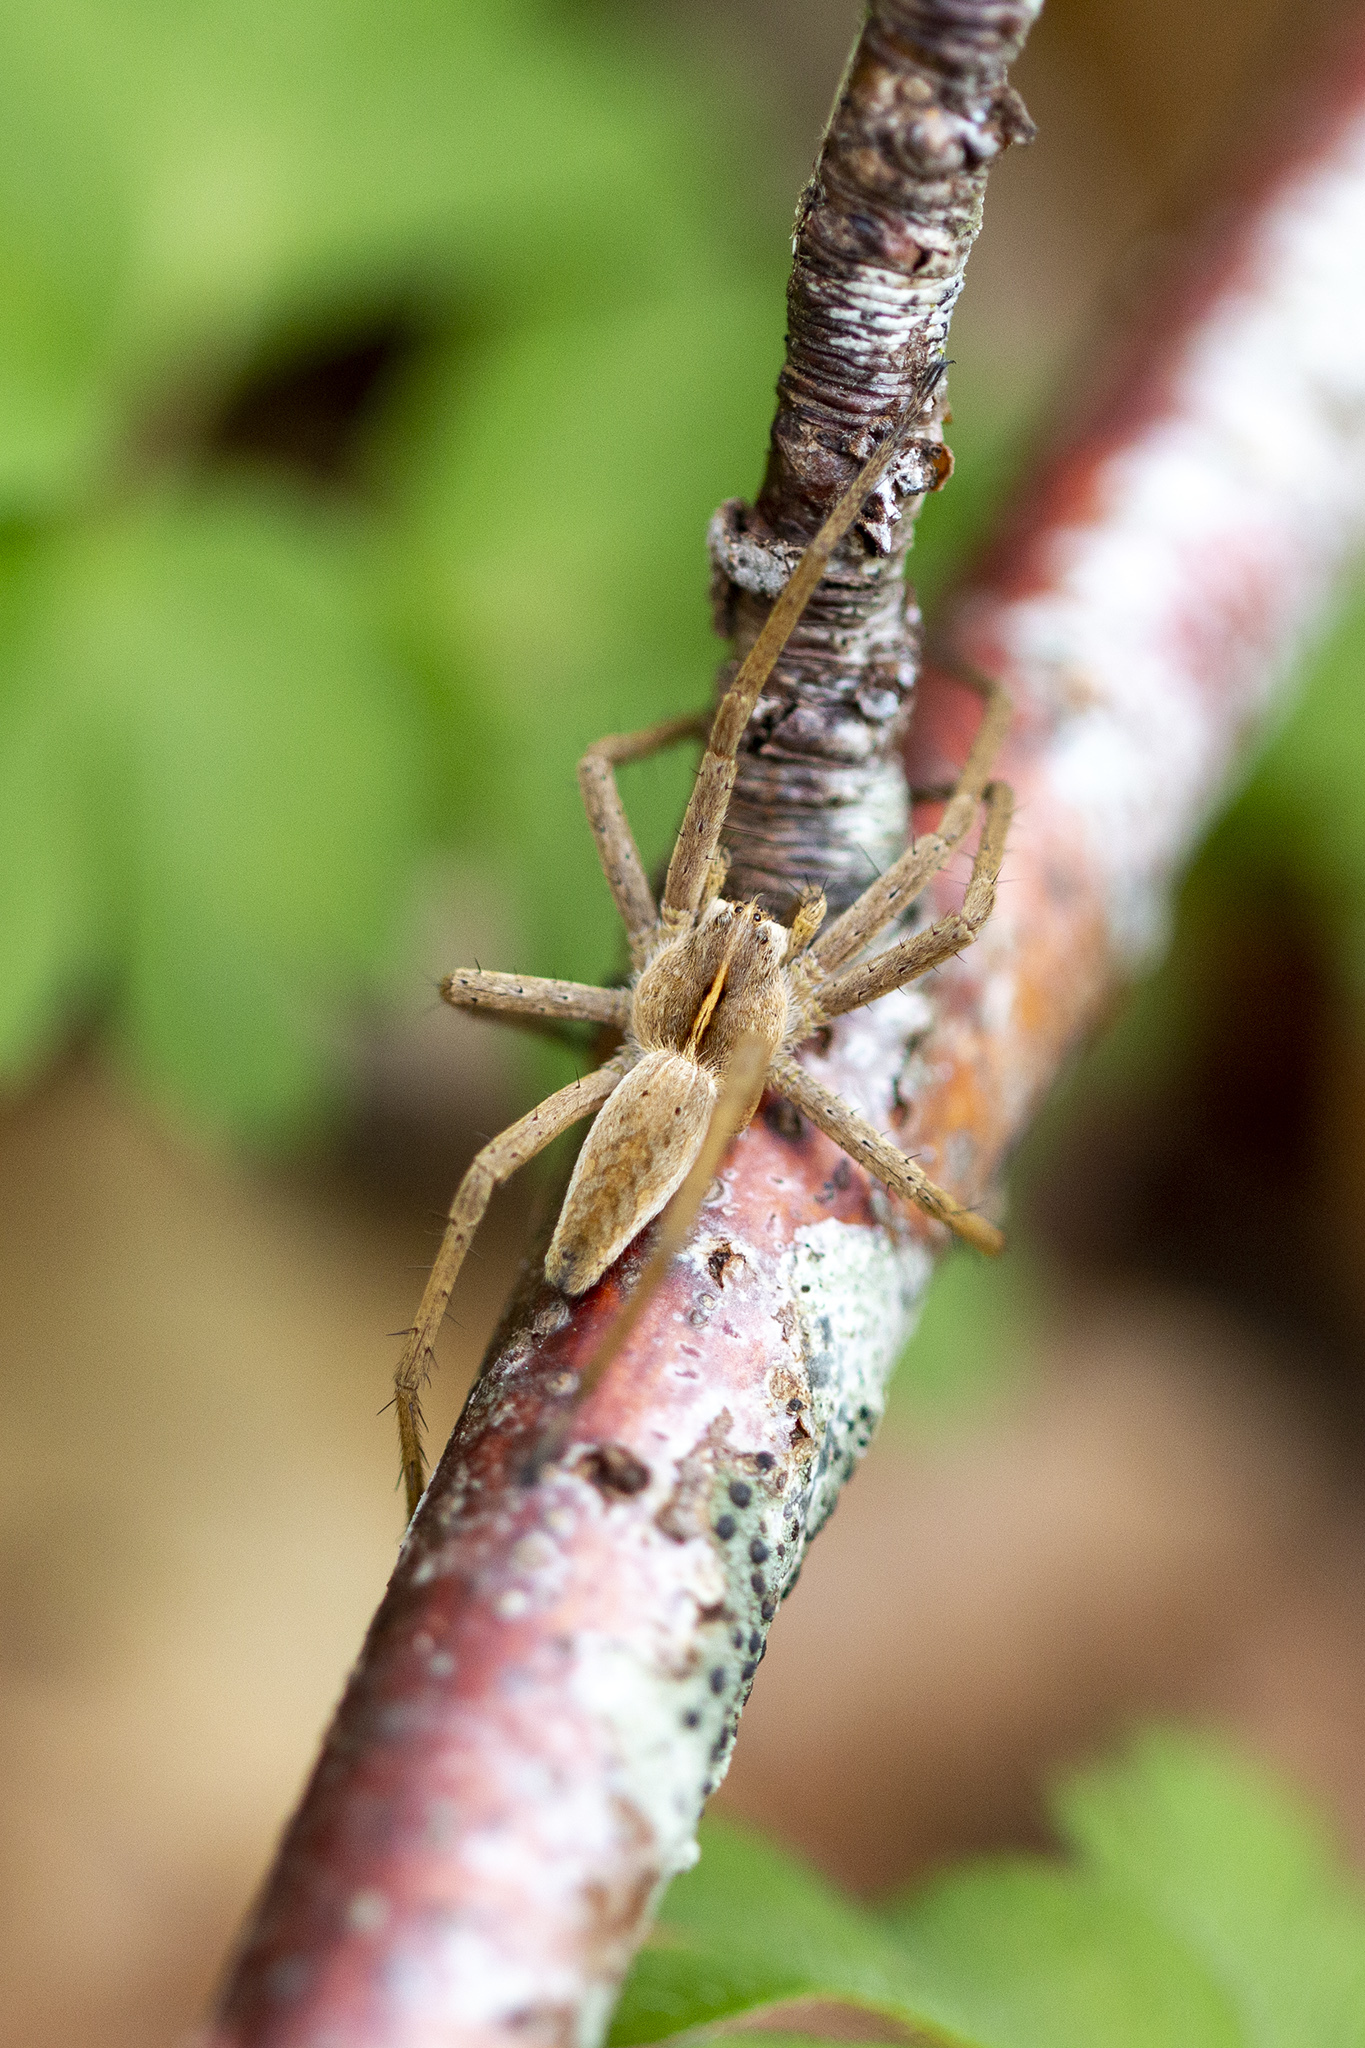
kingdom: Animalia
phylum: Arthropoda
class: Arachnida
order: Araneae
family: Pisauridae
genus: Pisaura
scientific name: Pisaura mirabilis
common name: Tent spider
